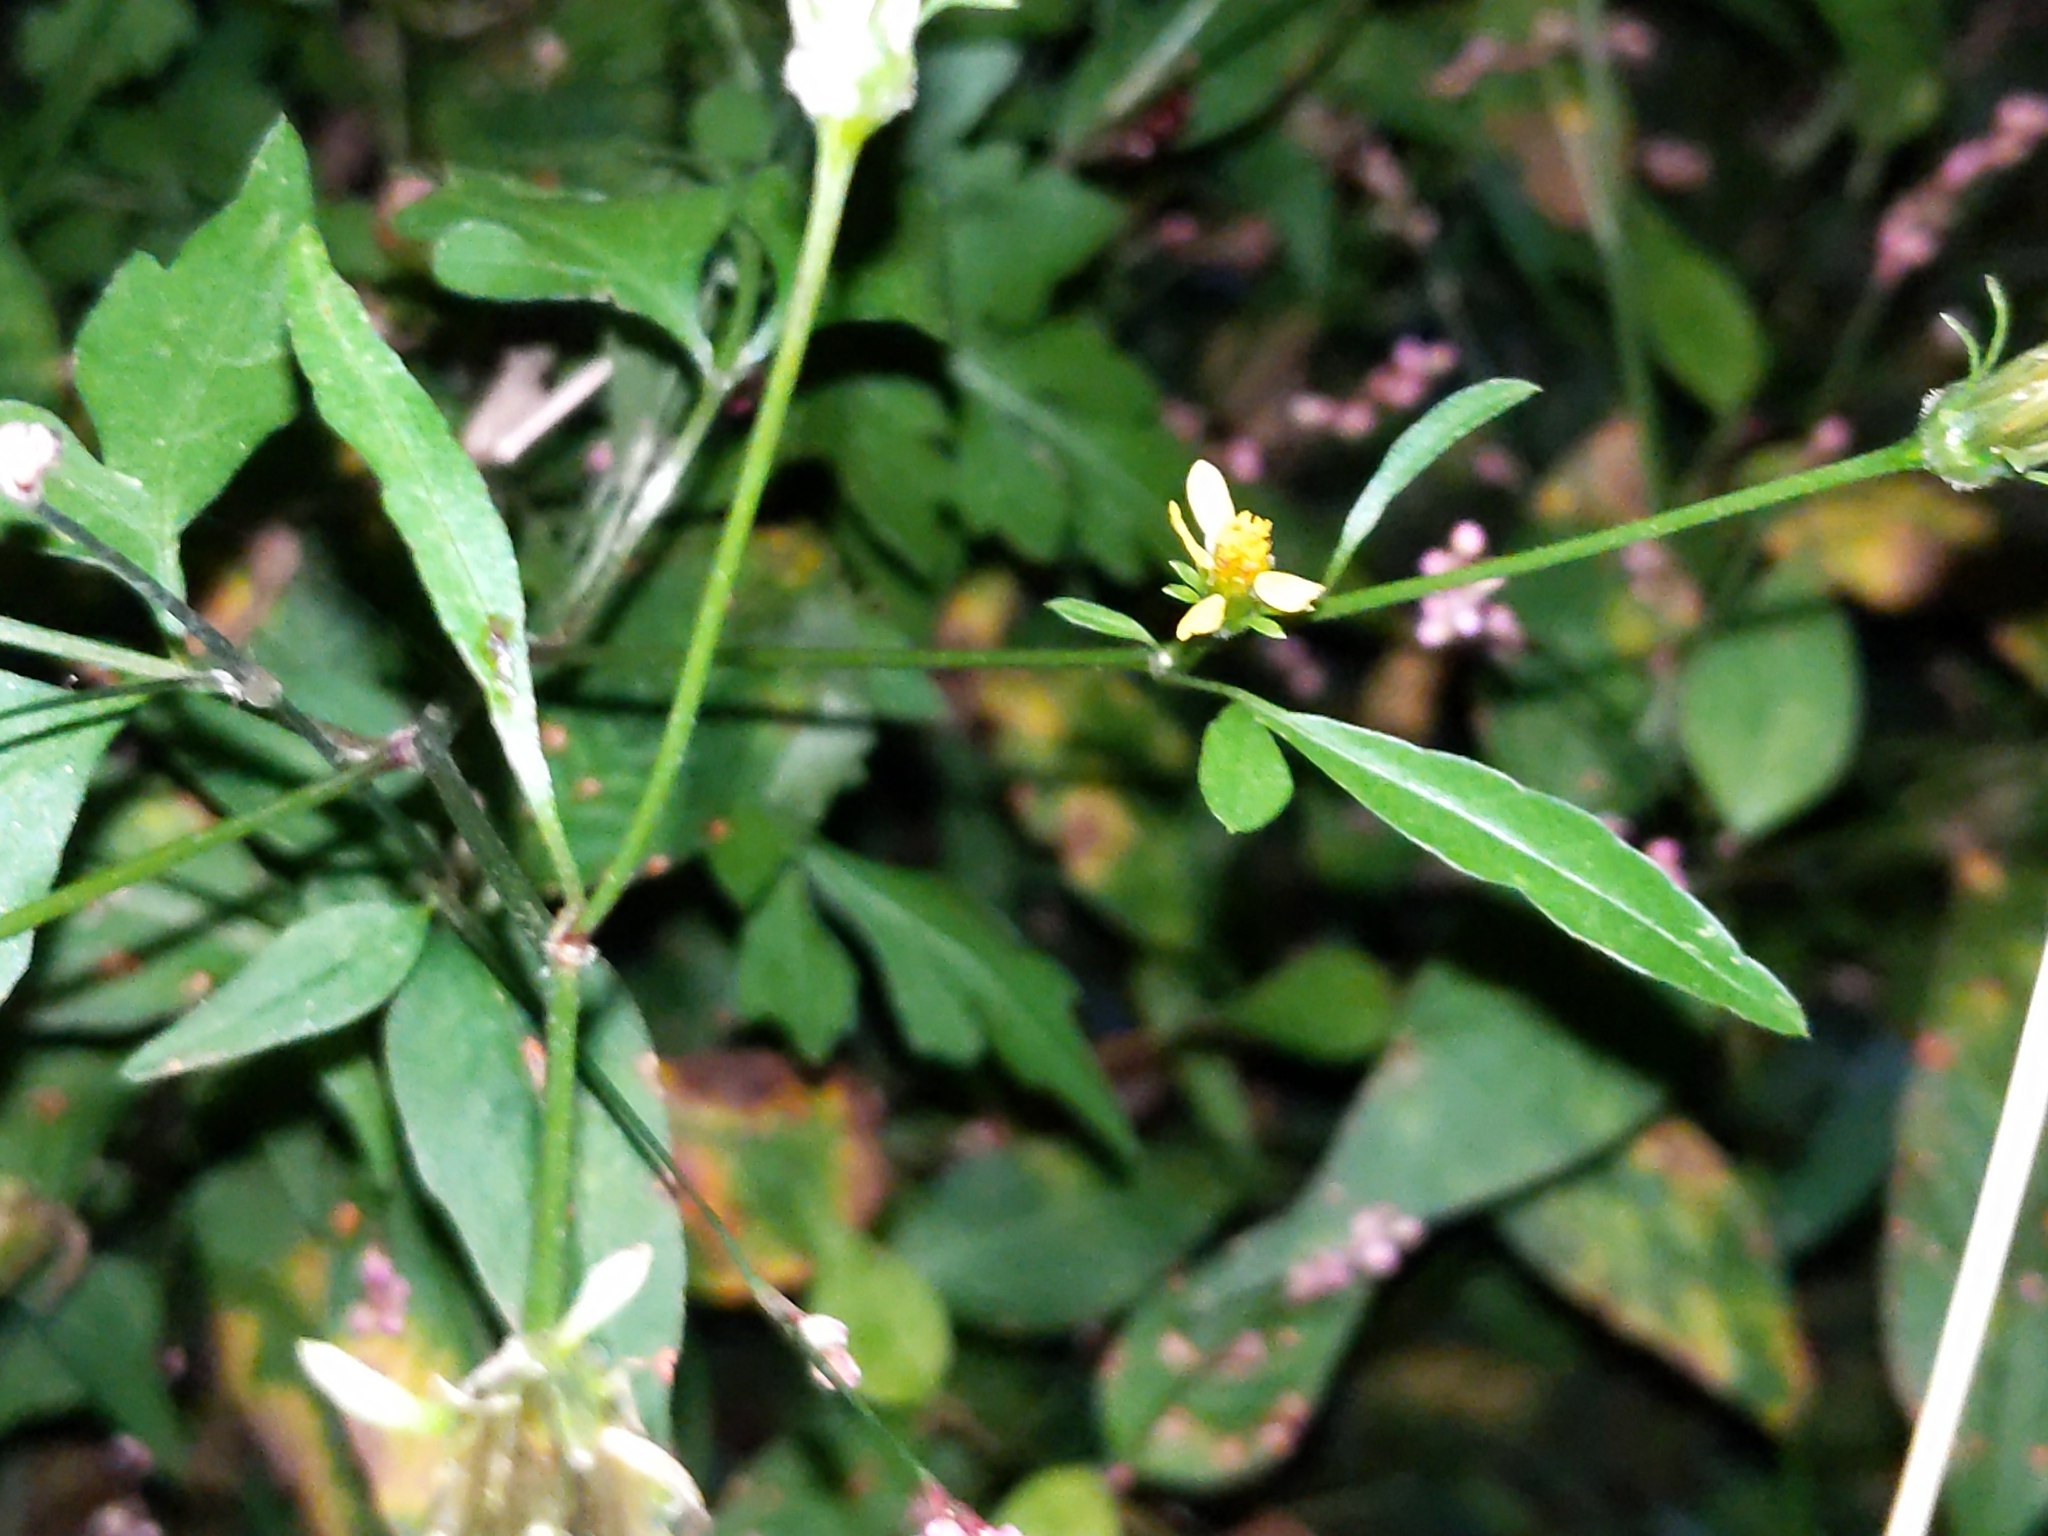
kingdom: Plantae
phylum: Tracheophyta
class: Magnoliopsida
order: Asterales
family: Asteraceae
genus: Bidens
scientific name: Bidens bipinnata
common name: Spanish-needles
